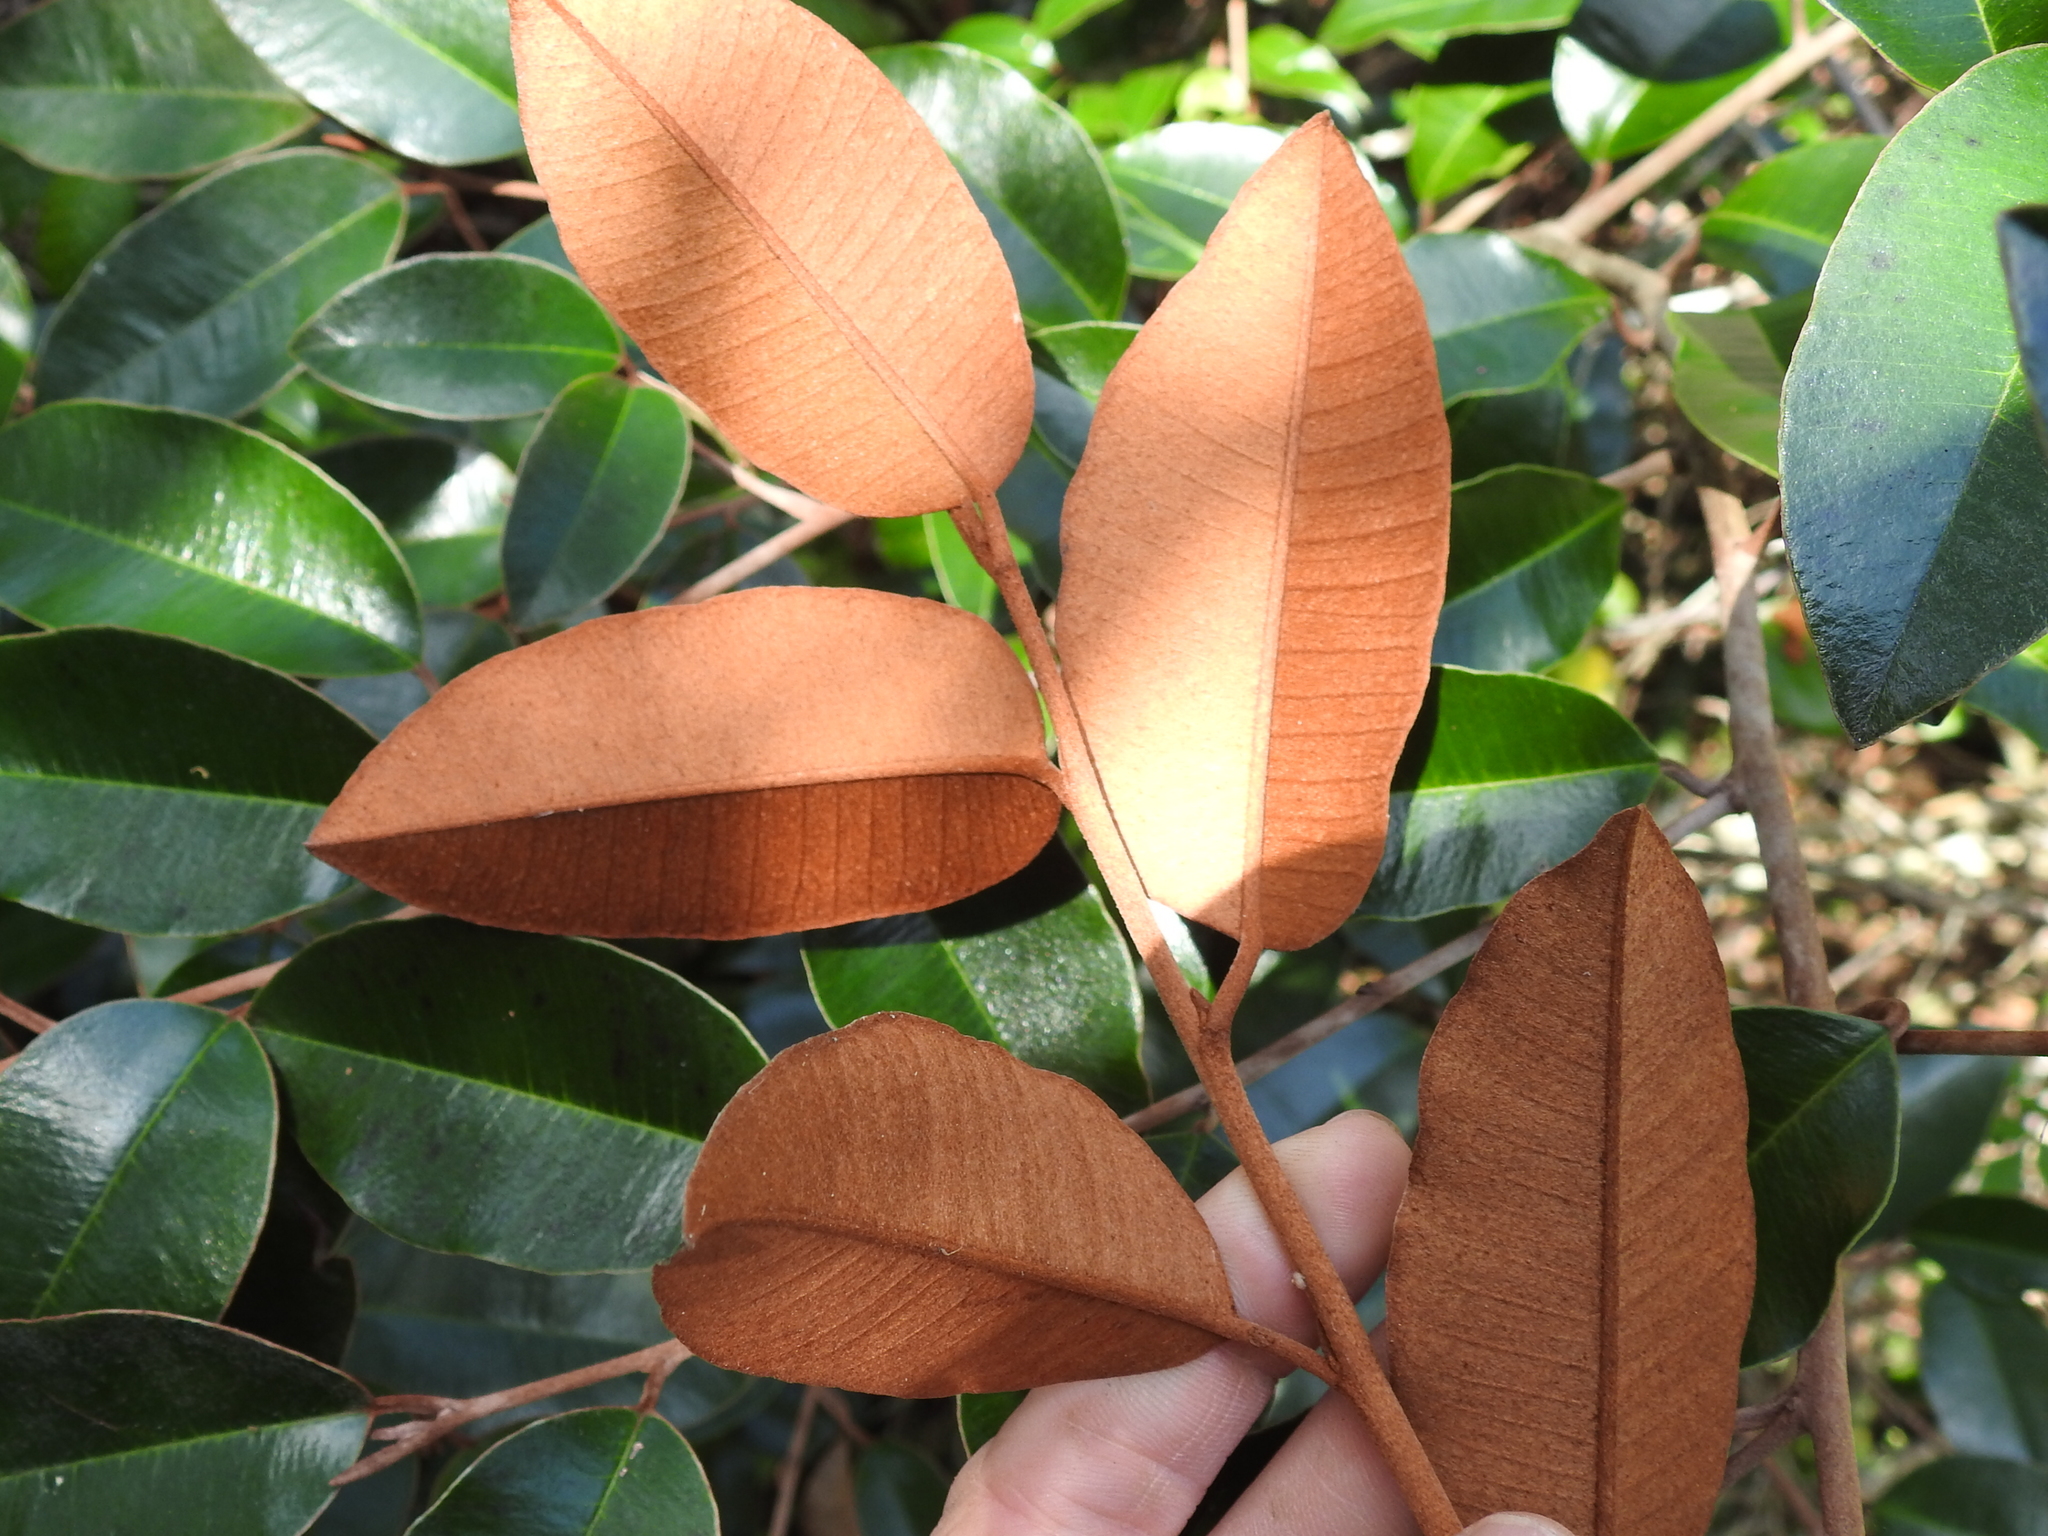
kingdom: Plantae
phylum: Tracheophyta
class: Magnoliopsida
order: Ericales
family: Sapotaceae
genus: Chrysophyllum
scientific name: Chrysophyllum oliviforme
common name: Satinleaf
